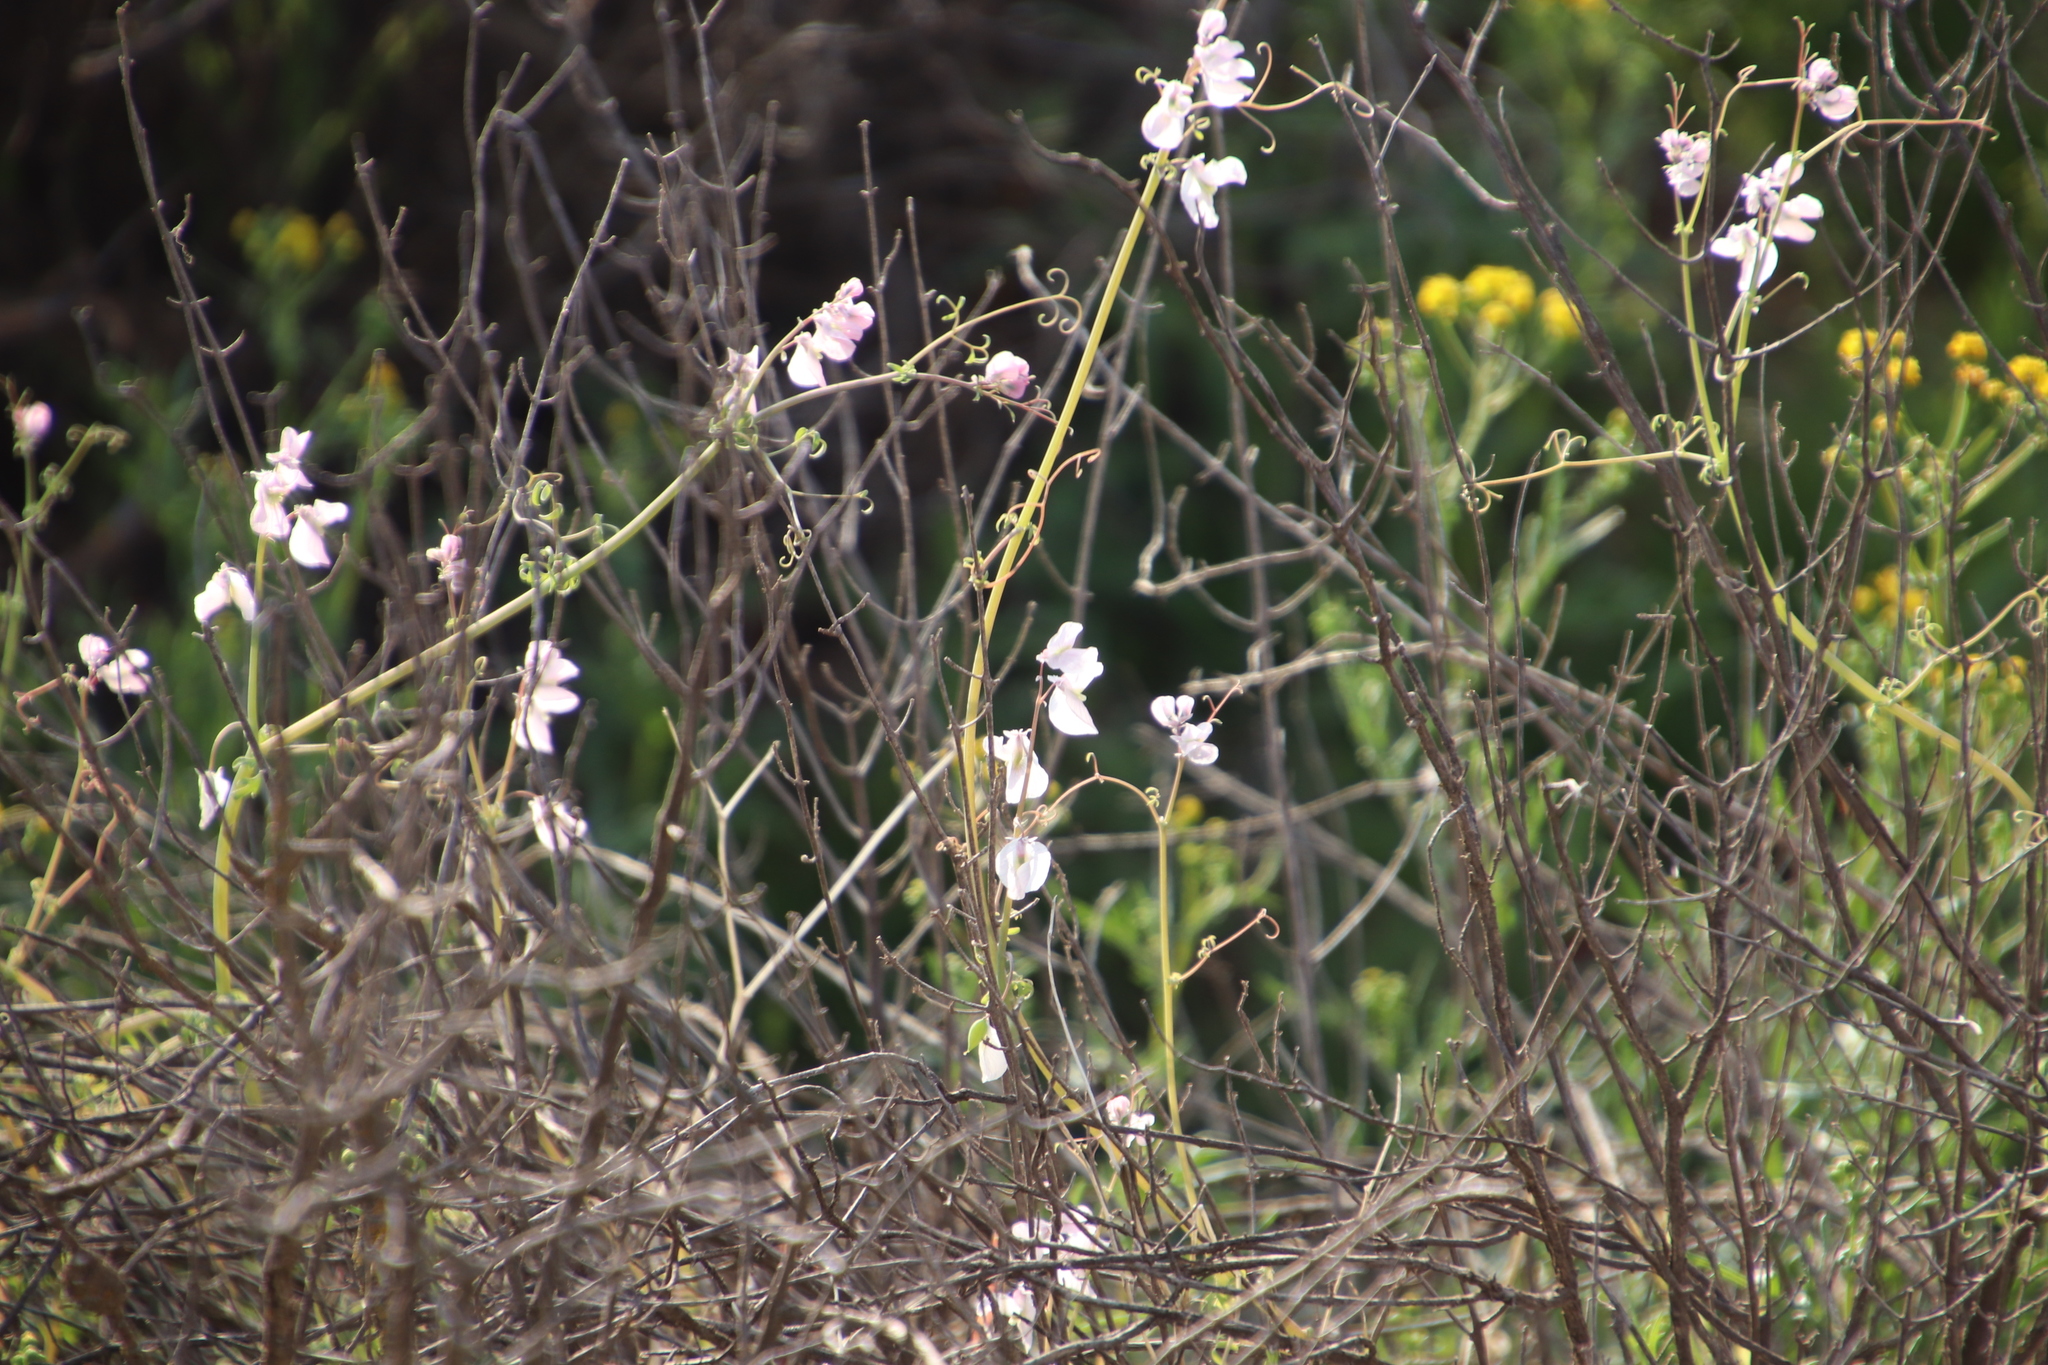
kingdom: Plantae
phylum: Tracheophyta
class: Magnoliopsida
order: Ranunculales
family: Papaveraceae
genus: Cysticapnos
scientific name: Cysticapnos vesicaria
